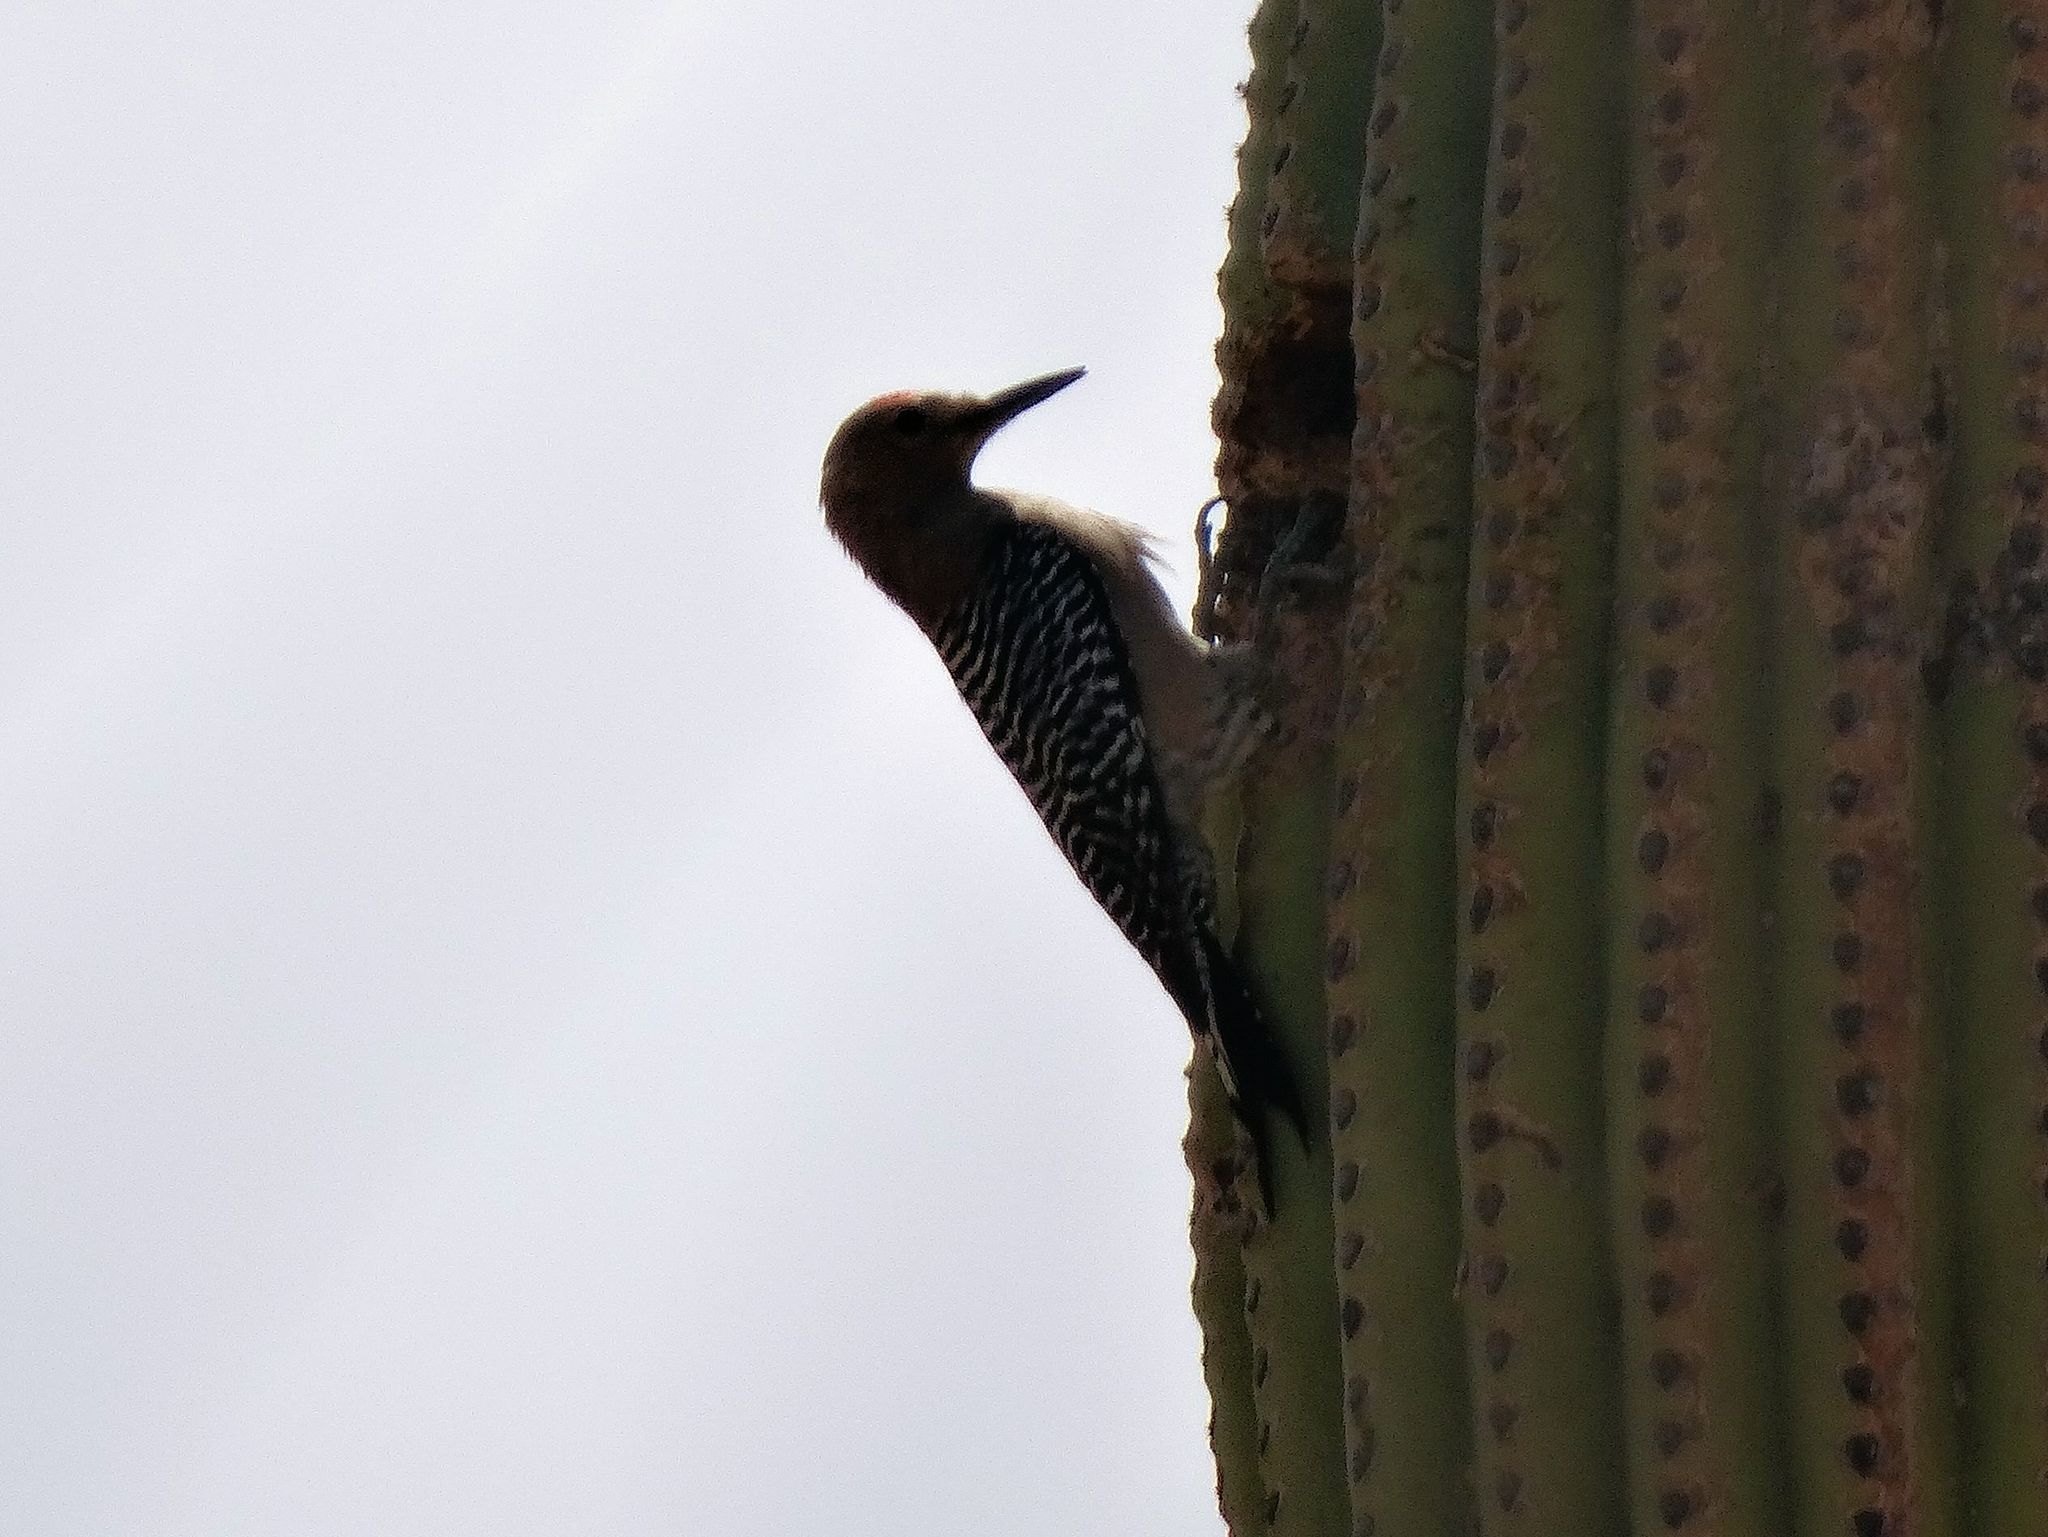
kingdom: Animalia
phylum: Chordata
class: Aves
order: Piciformes
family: Picidae
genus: Melanerpes
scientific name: Melanerpes uropygialis
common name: Gila woodpecker
